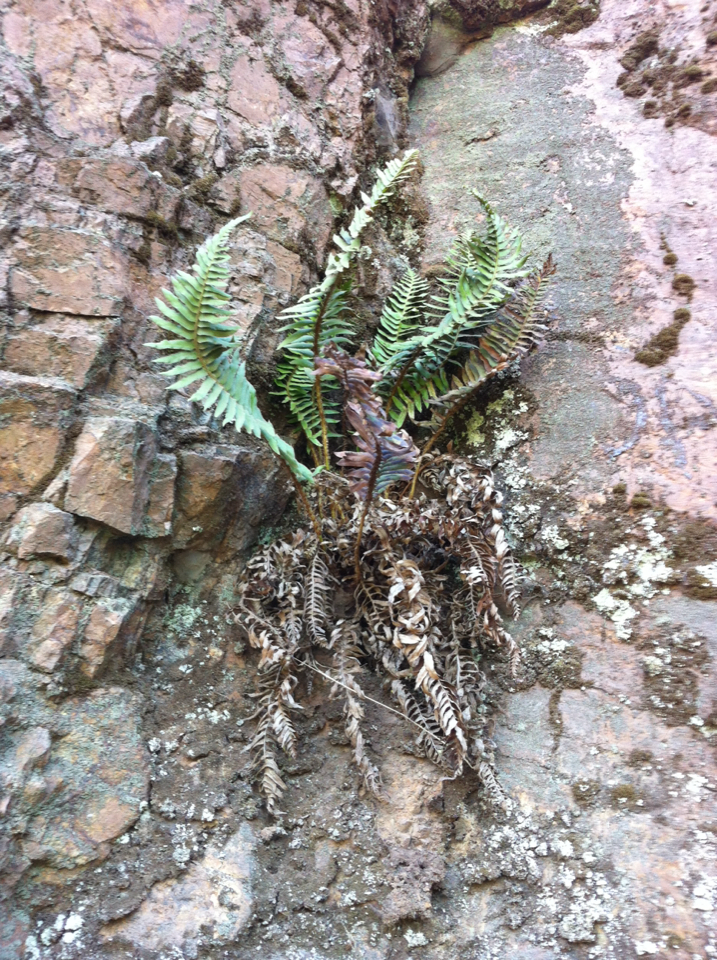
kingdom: Plantae
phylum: Tracheophyta
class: Polypodiopsida
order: Polypodiales
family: Dryopteridaceae
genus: Polystichum
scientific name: Polystichum munitum
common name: Western sword-fern
